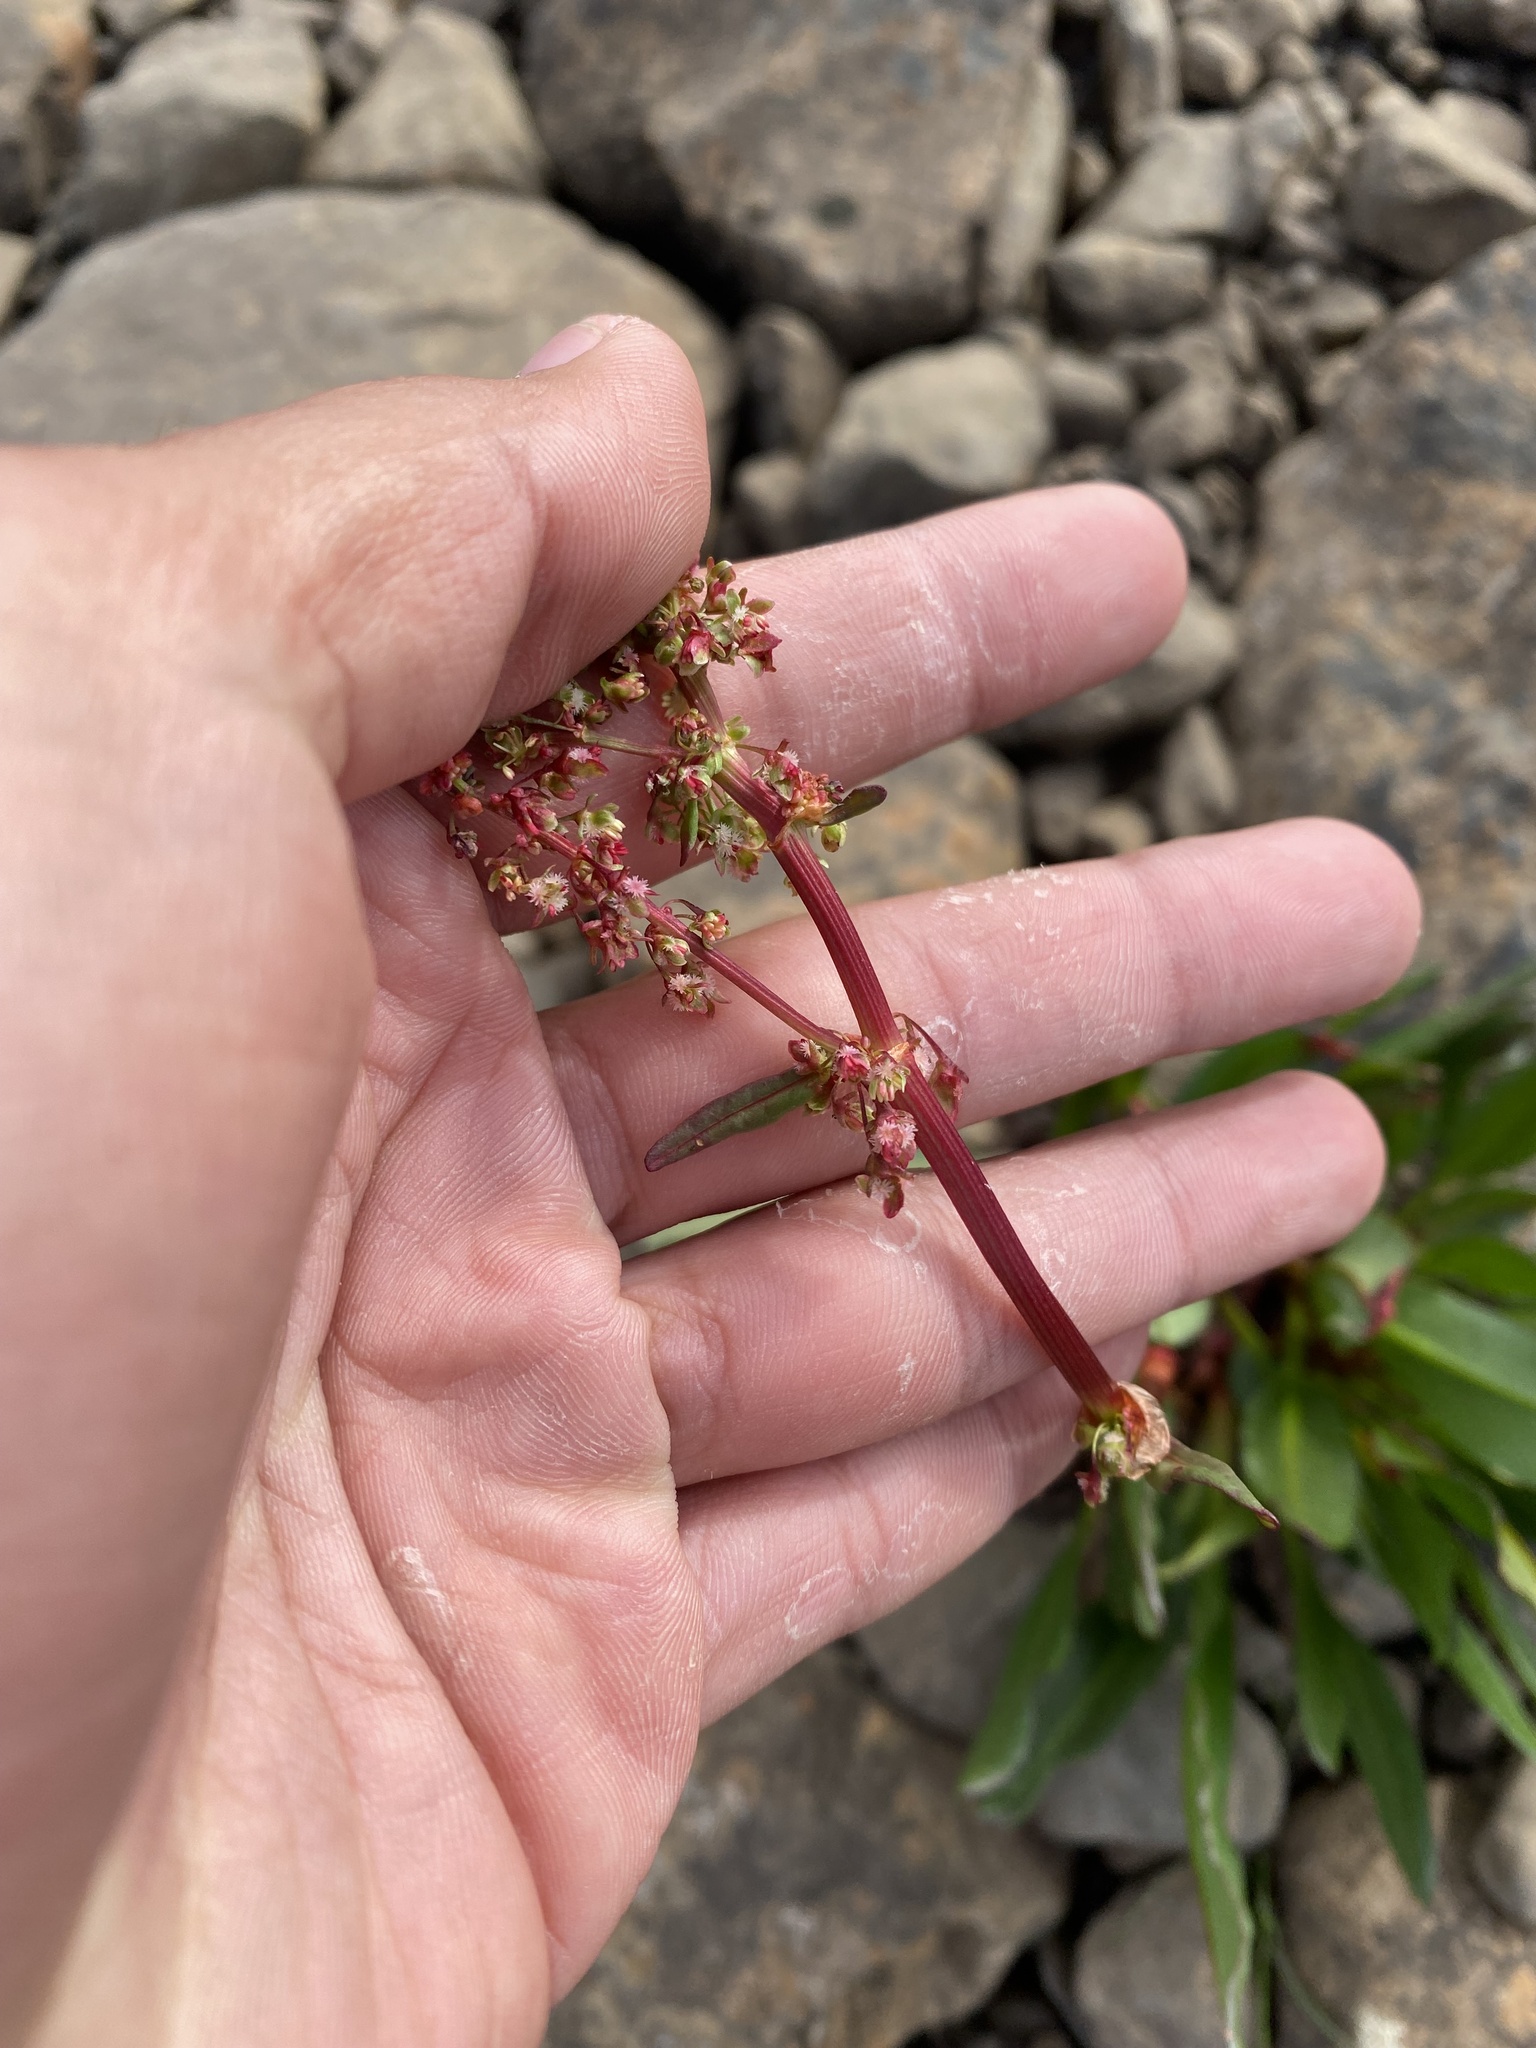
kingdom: Plantae
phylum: Tracheophyta
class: Magnoliopsida
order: Caryophyllales
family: Polygonaceae
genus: Rumex
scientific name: Rumex arcticus
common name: Arctic dock
